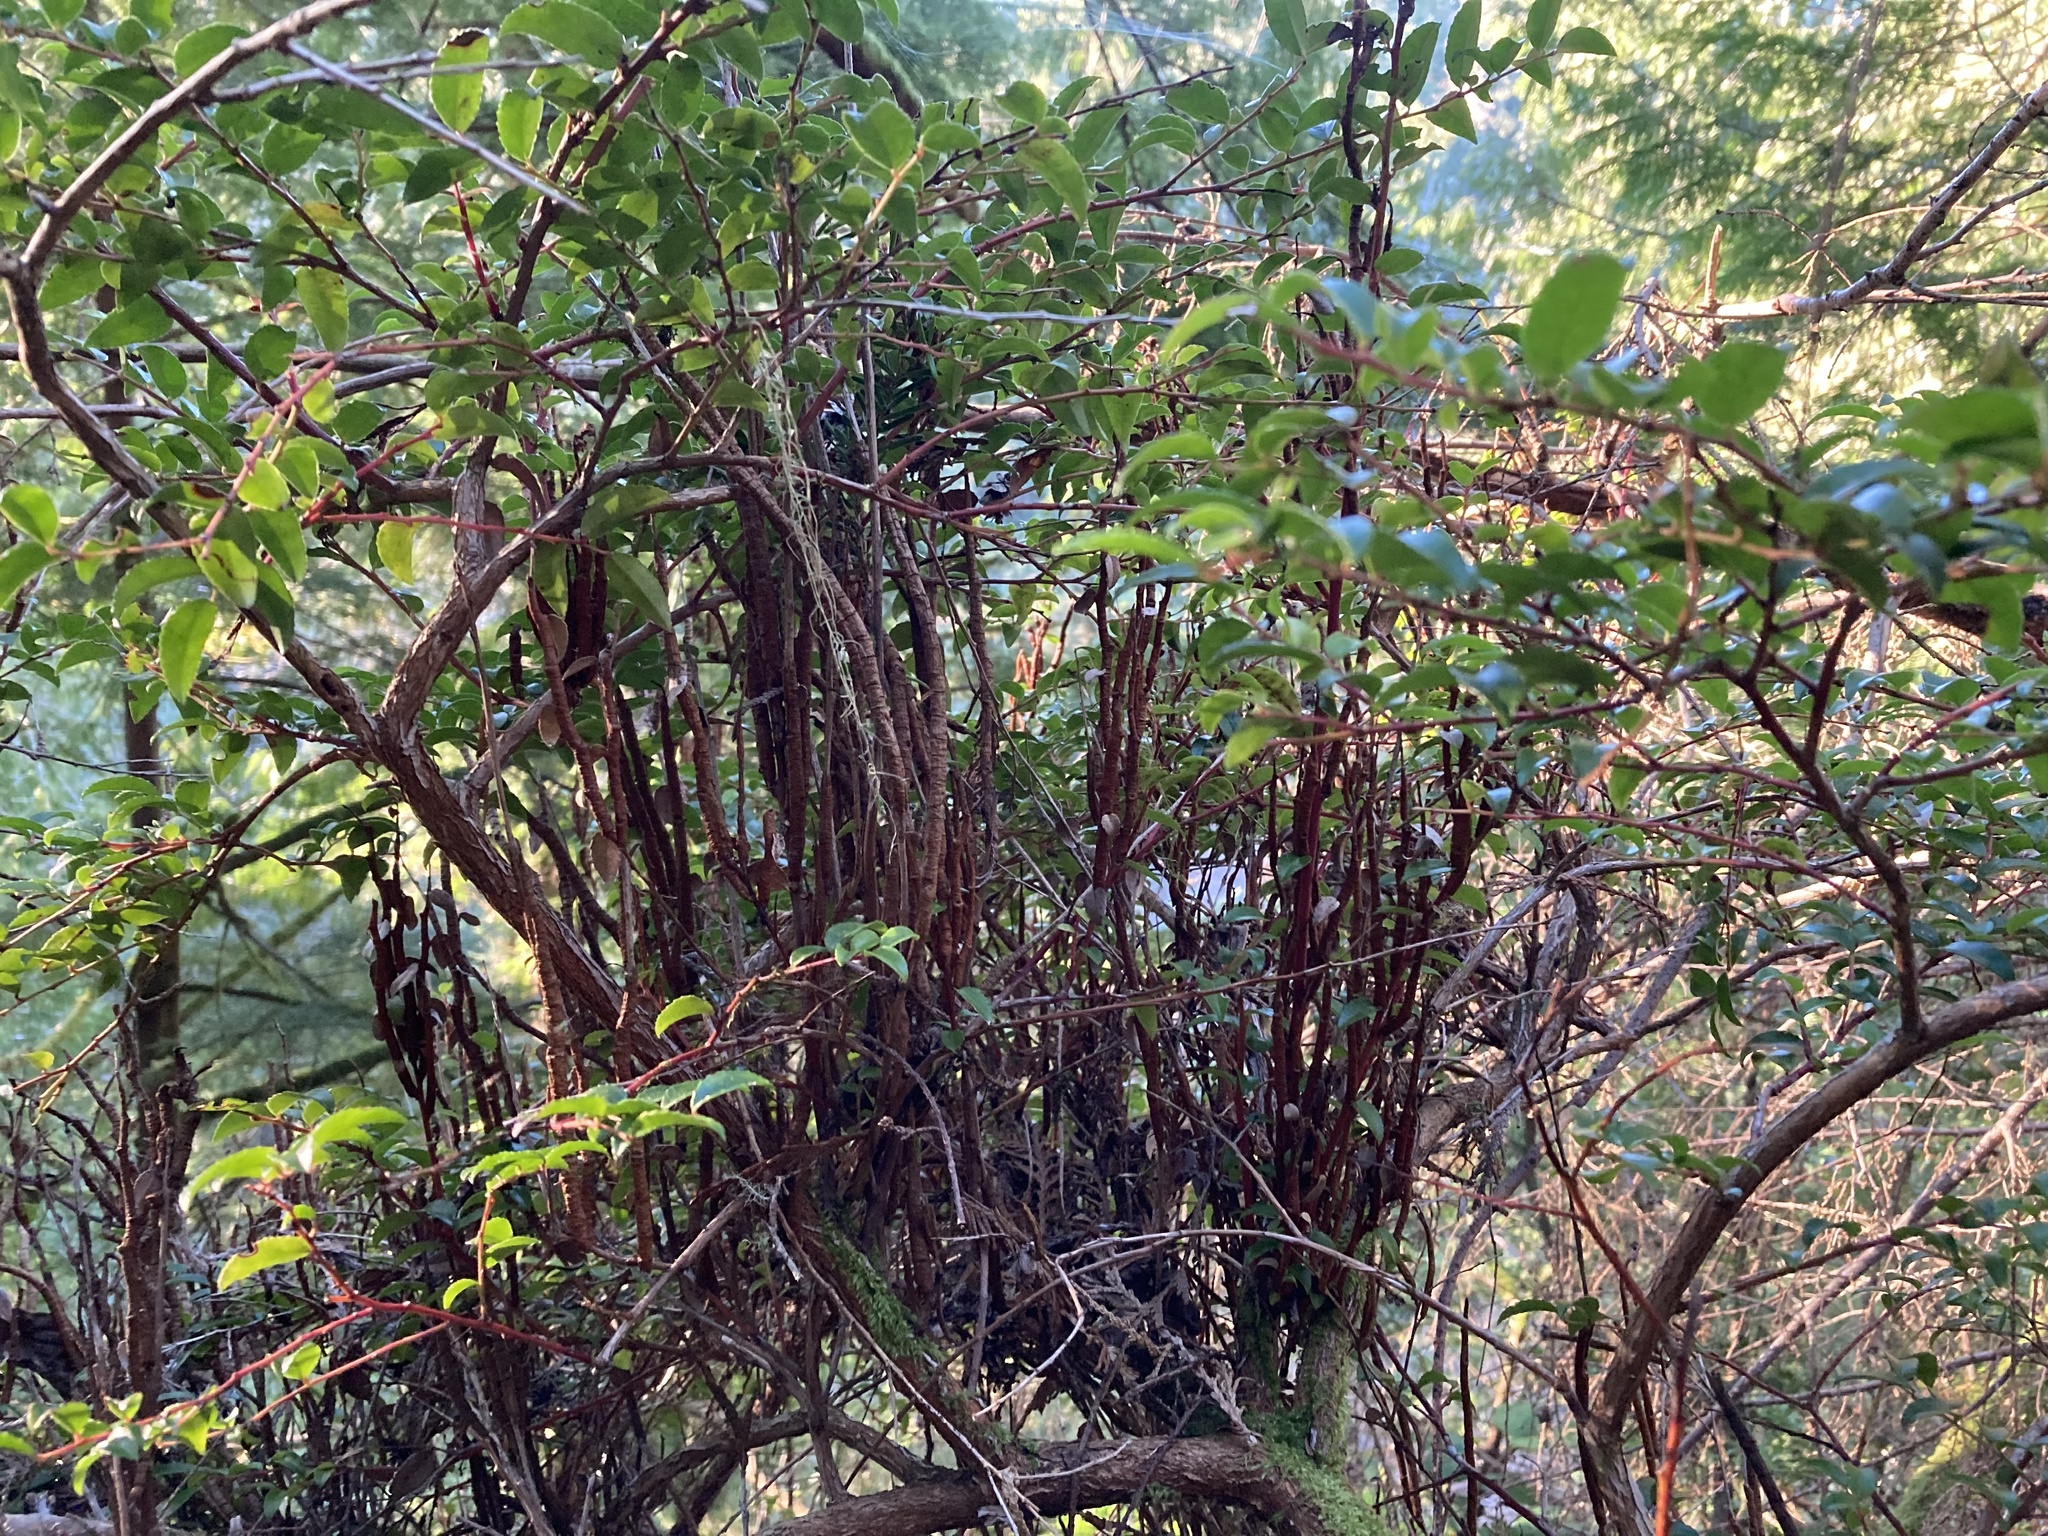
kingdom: Fungi
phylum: Basidiomycota
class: Pucciniomycetes
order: Pucciniales
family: Pucciniastraceae
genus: Calyptospora
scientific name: Calyptospora
